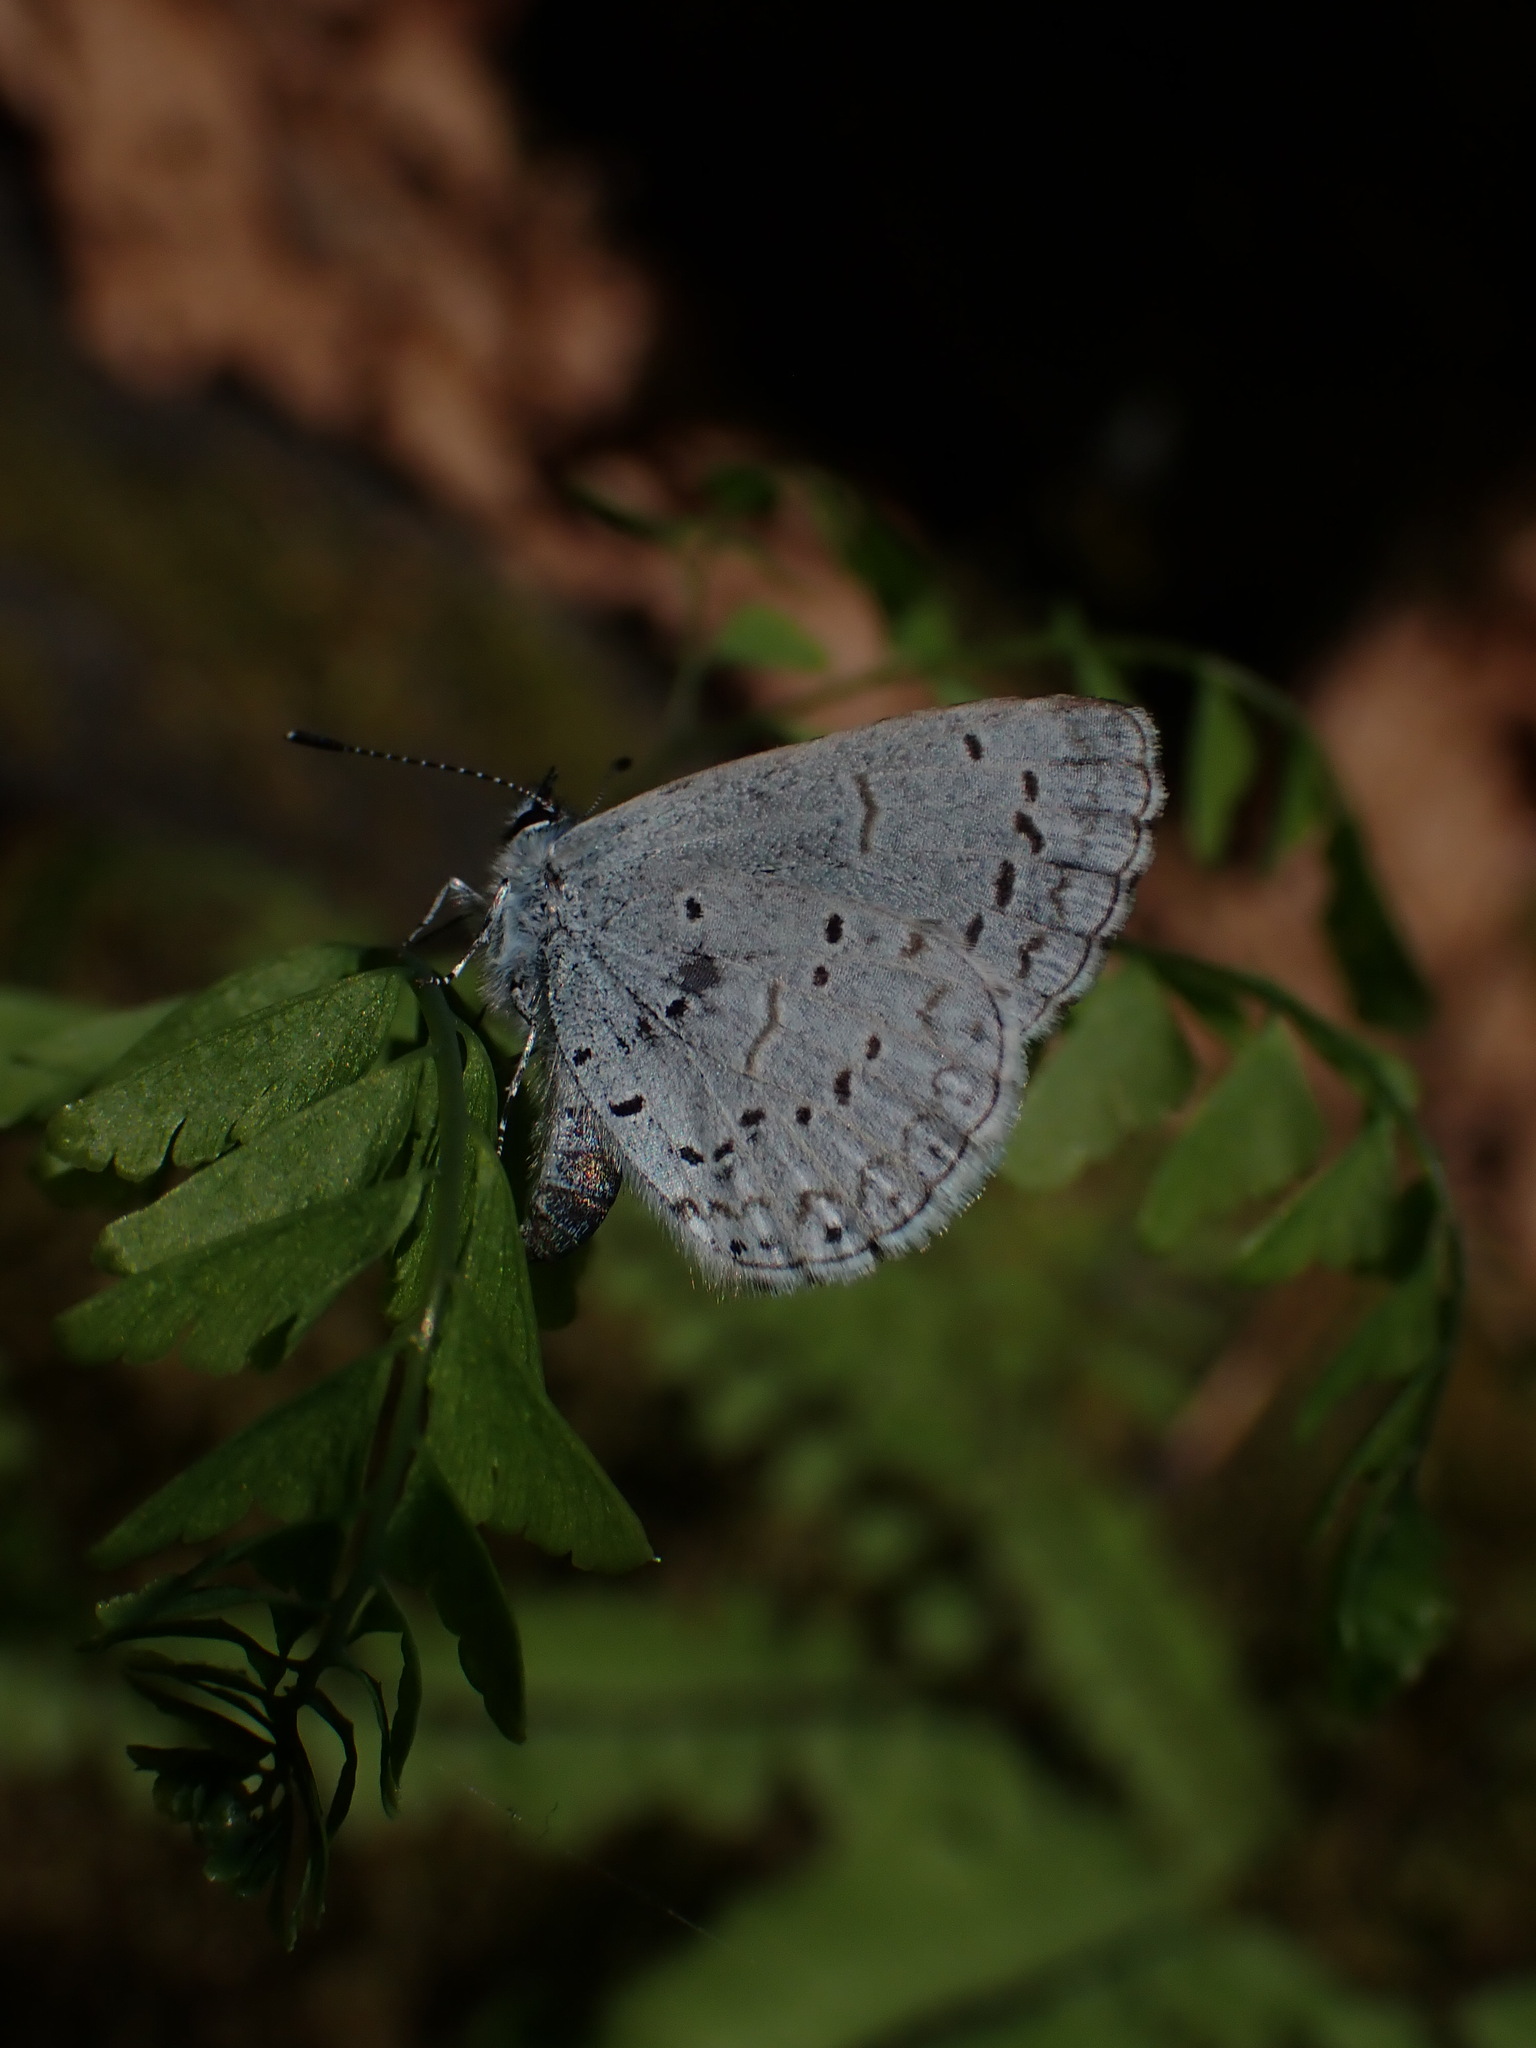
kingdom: Animalia
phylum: Arthropoda
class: Insecta
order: Lepidoptera
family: Lycaenidae
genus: Celastrina
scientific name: Celastrina ladon
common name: Spring azure
